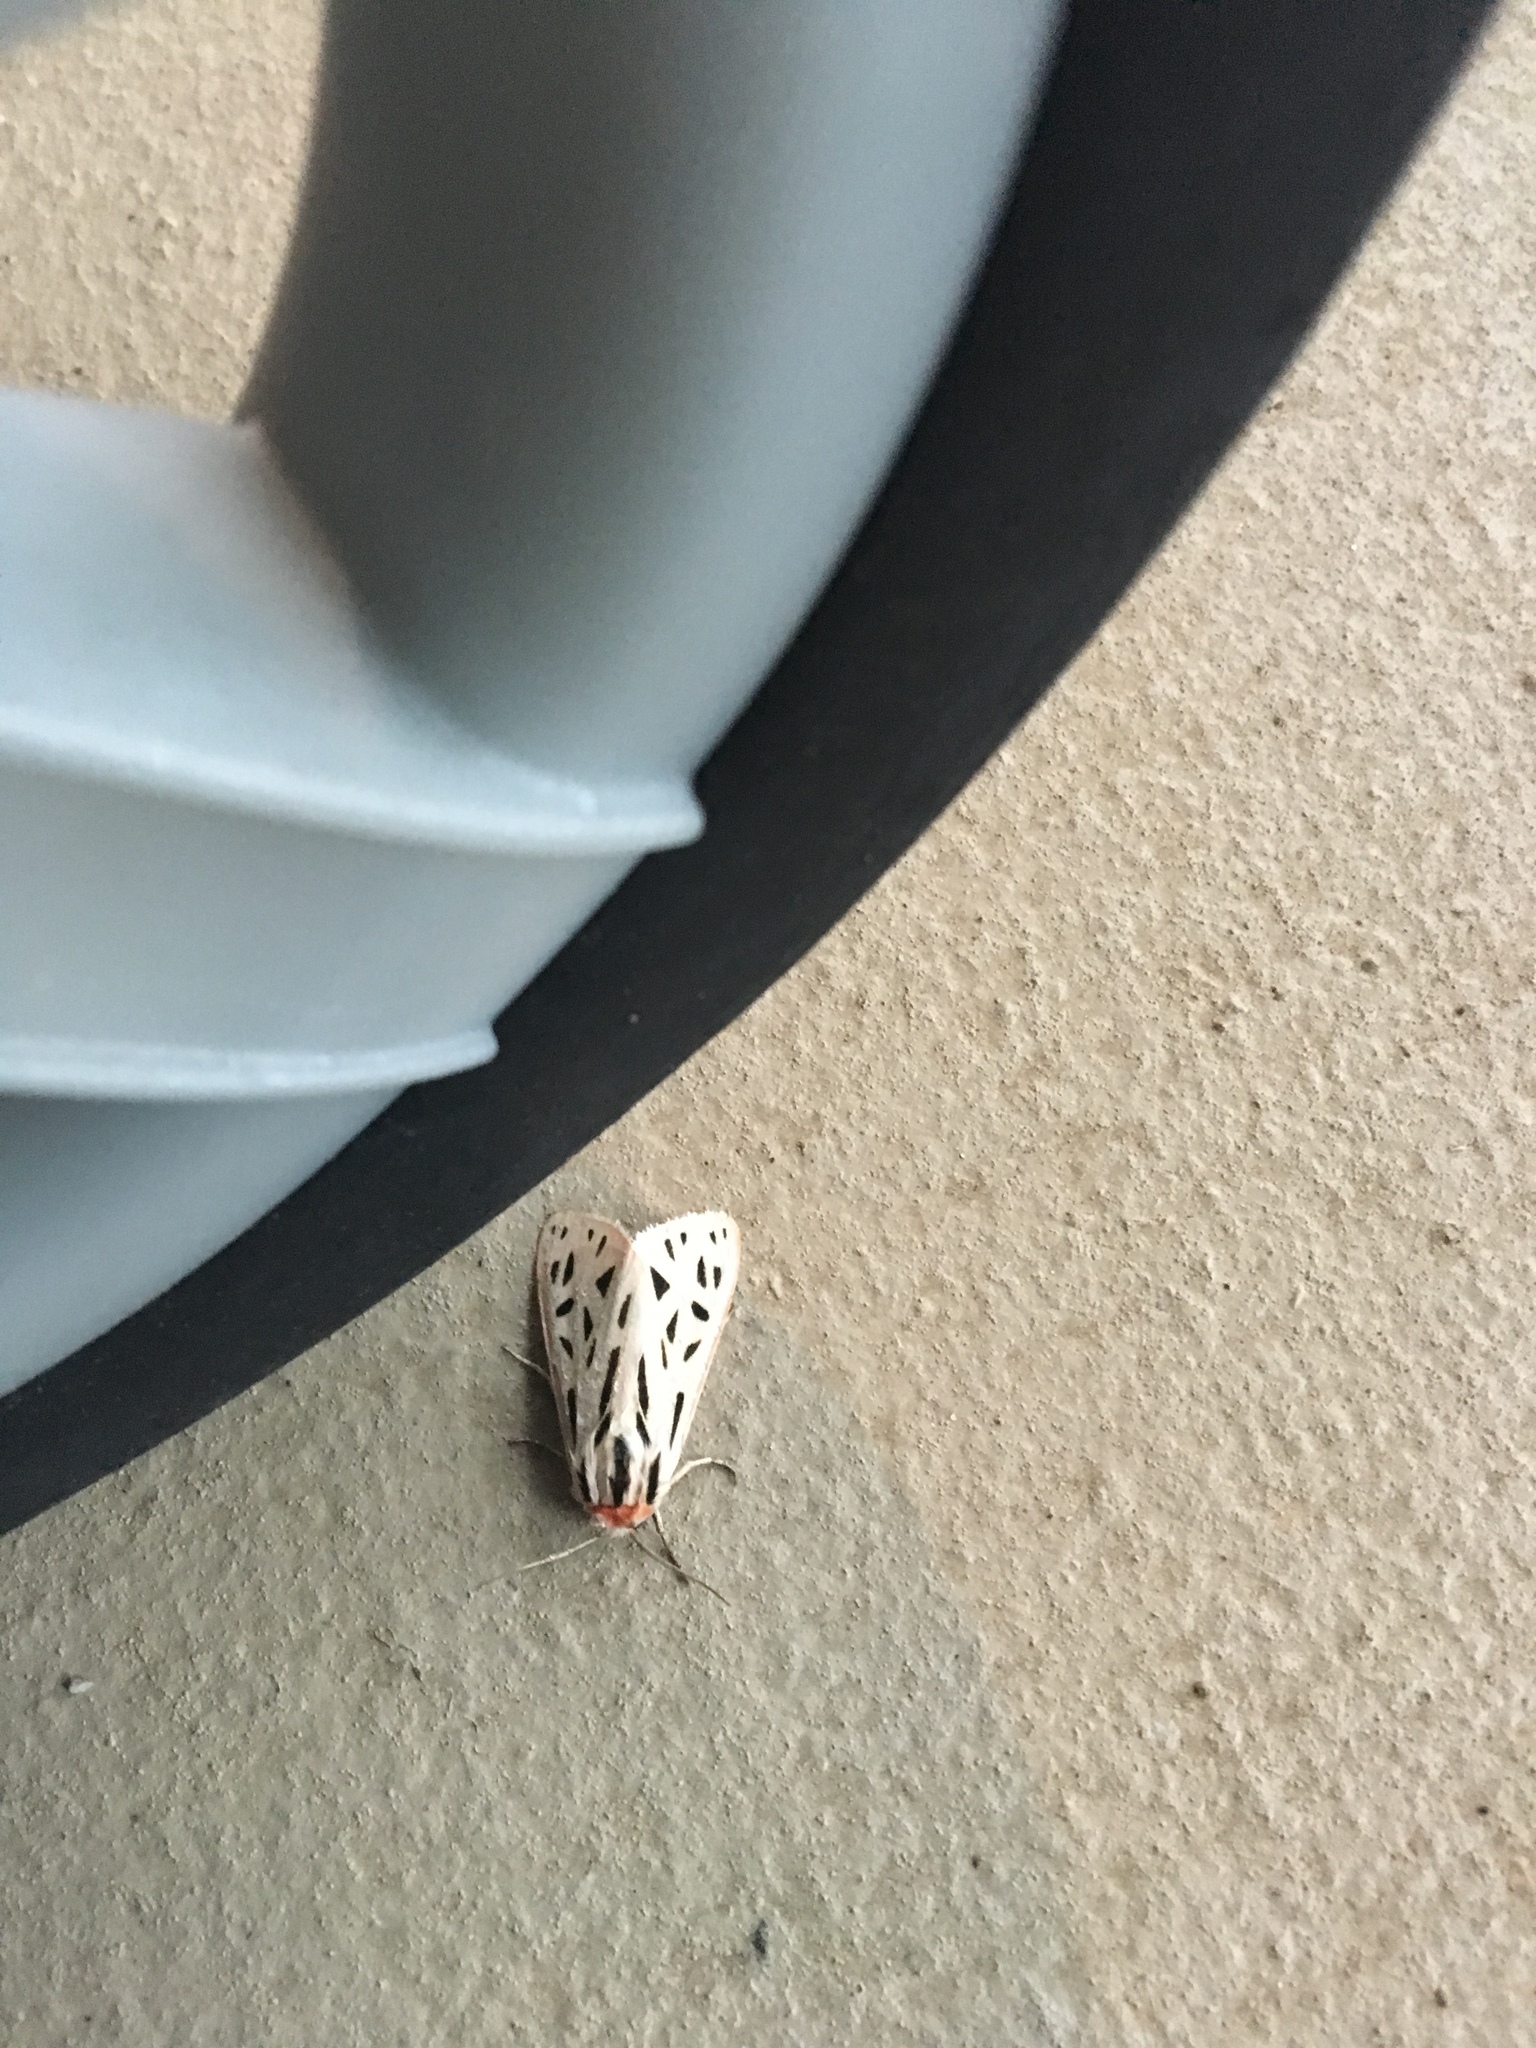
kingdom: Animalia
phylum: Arthropoda
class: Insecta
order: Lepidoptera
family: Erebidae
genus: Apantesis
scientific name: Apantesis arge
